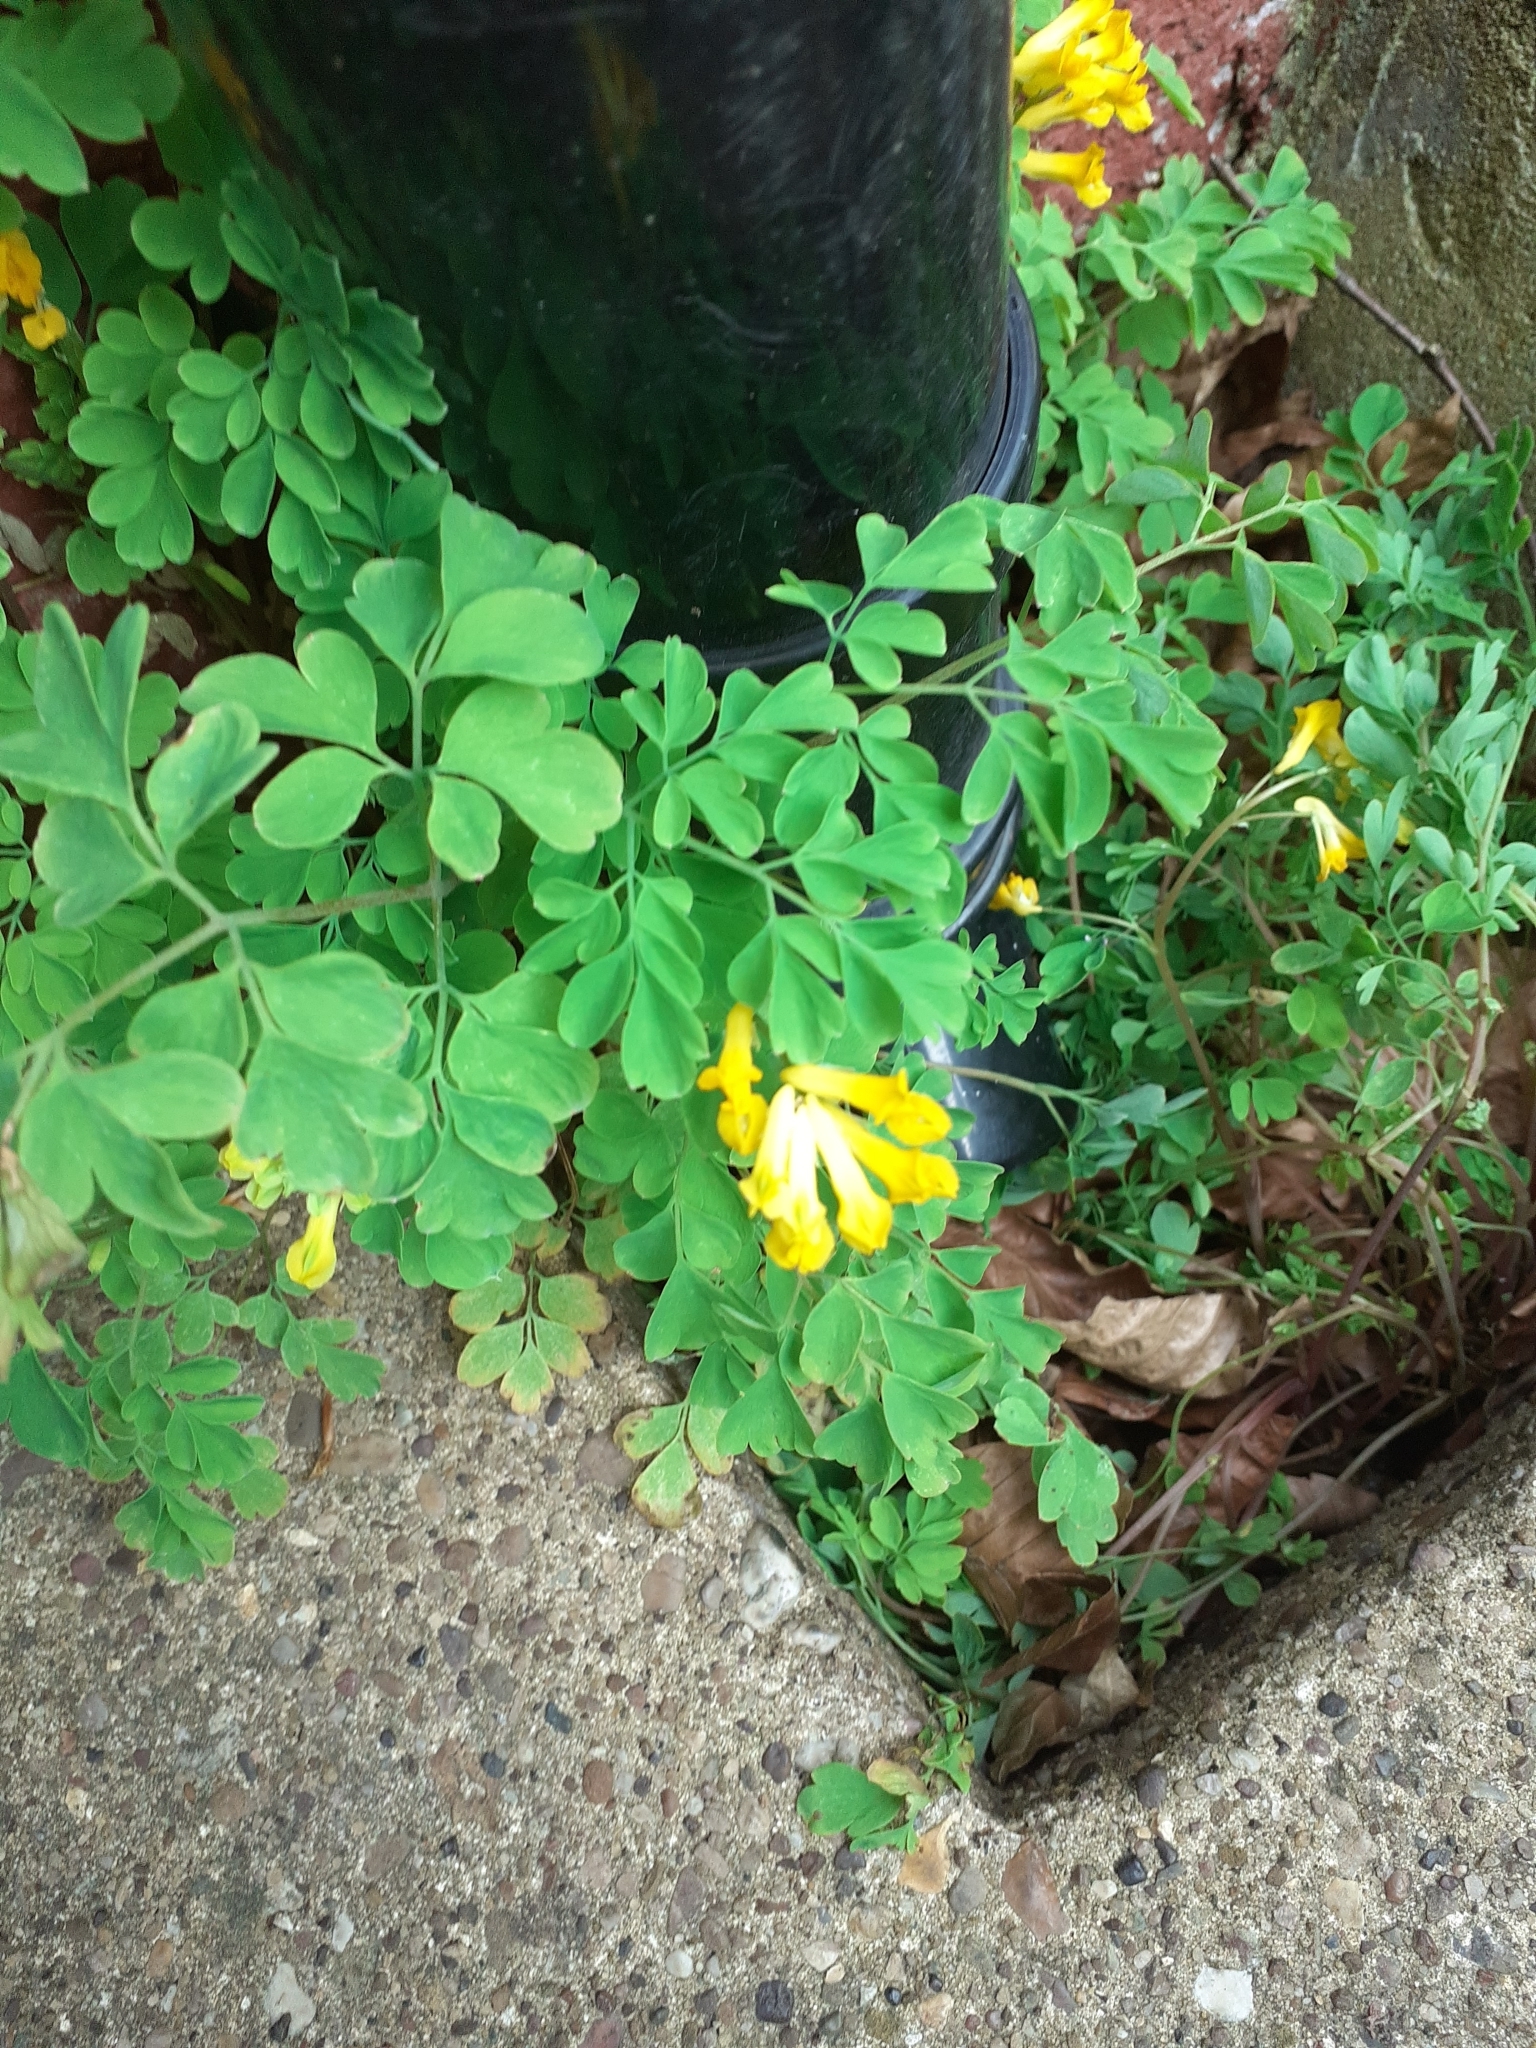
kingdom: Plantae
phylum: Tracheophyta
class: Magnoliopsida
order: Ranunculales
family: Papaveraceae
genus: Pseudofumaria
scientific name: Pseudofumaria lutea
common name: Yellow corydalis
